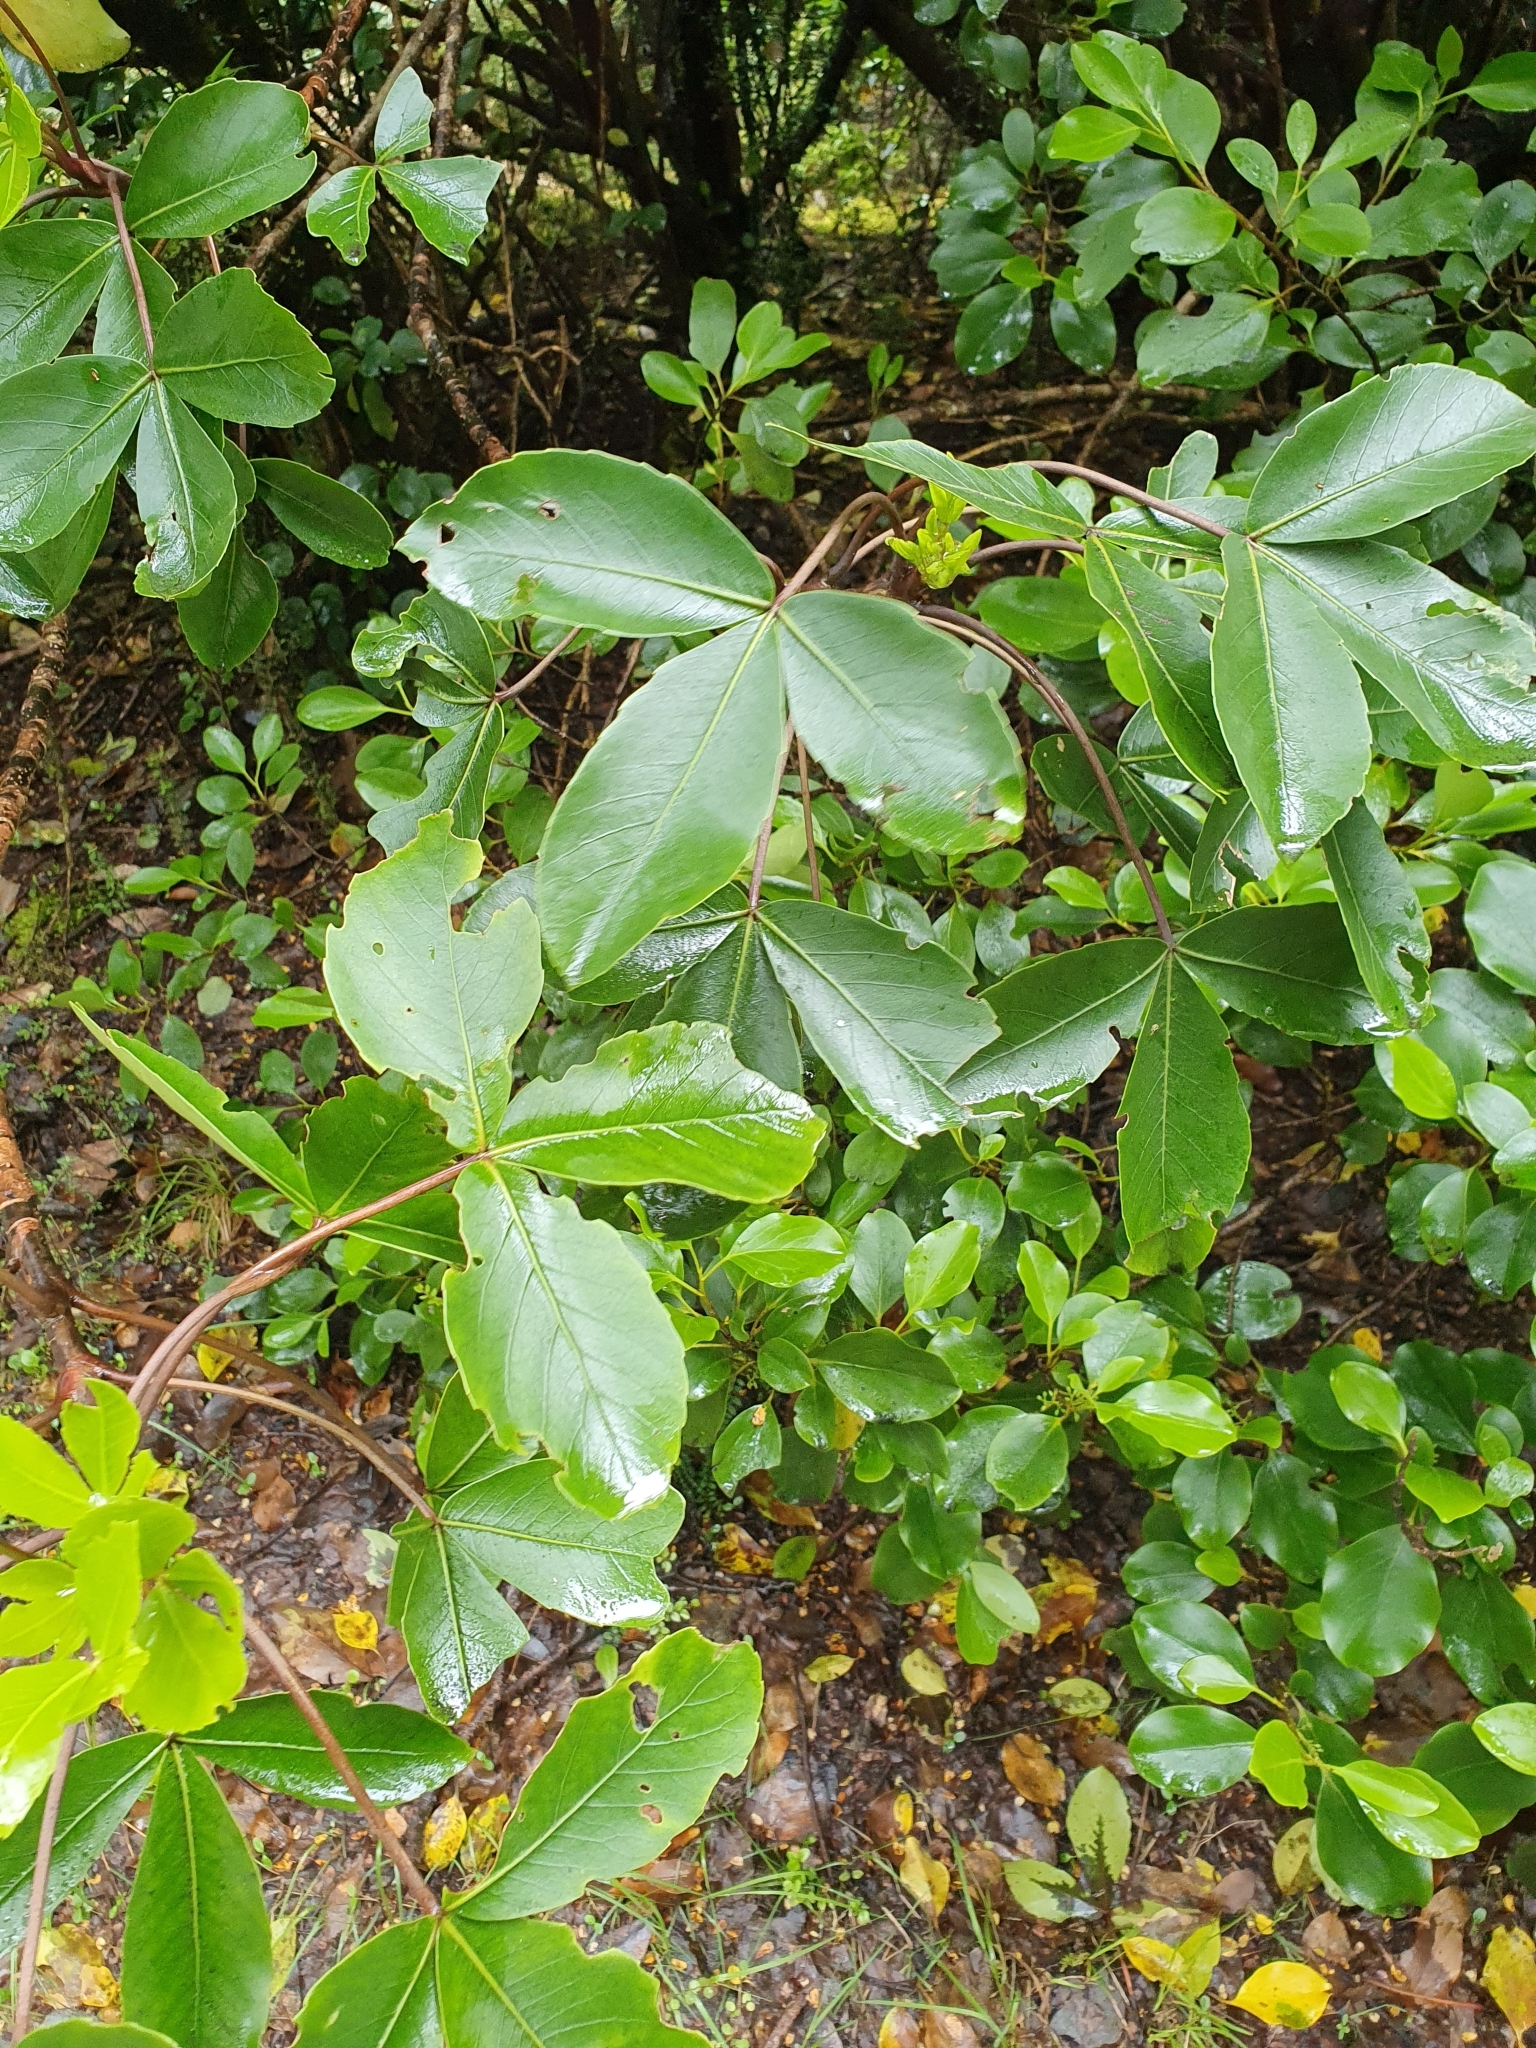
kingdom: Plantae
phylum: Tracheophyta
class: Magnoliopsida
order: Apiales
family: Araliaceae
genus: Neopanax
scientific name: Neopanax colensoi
